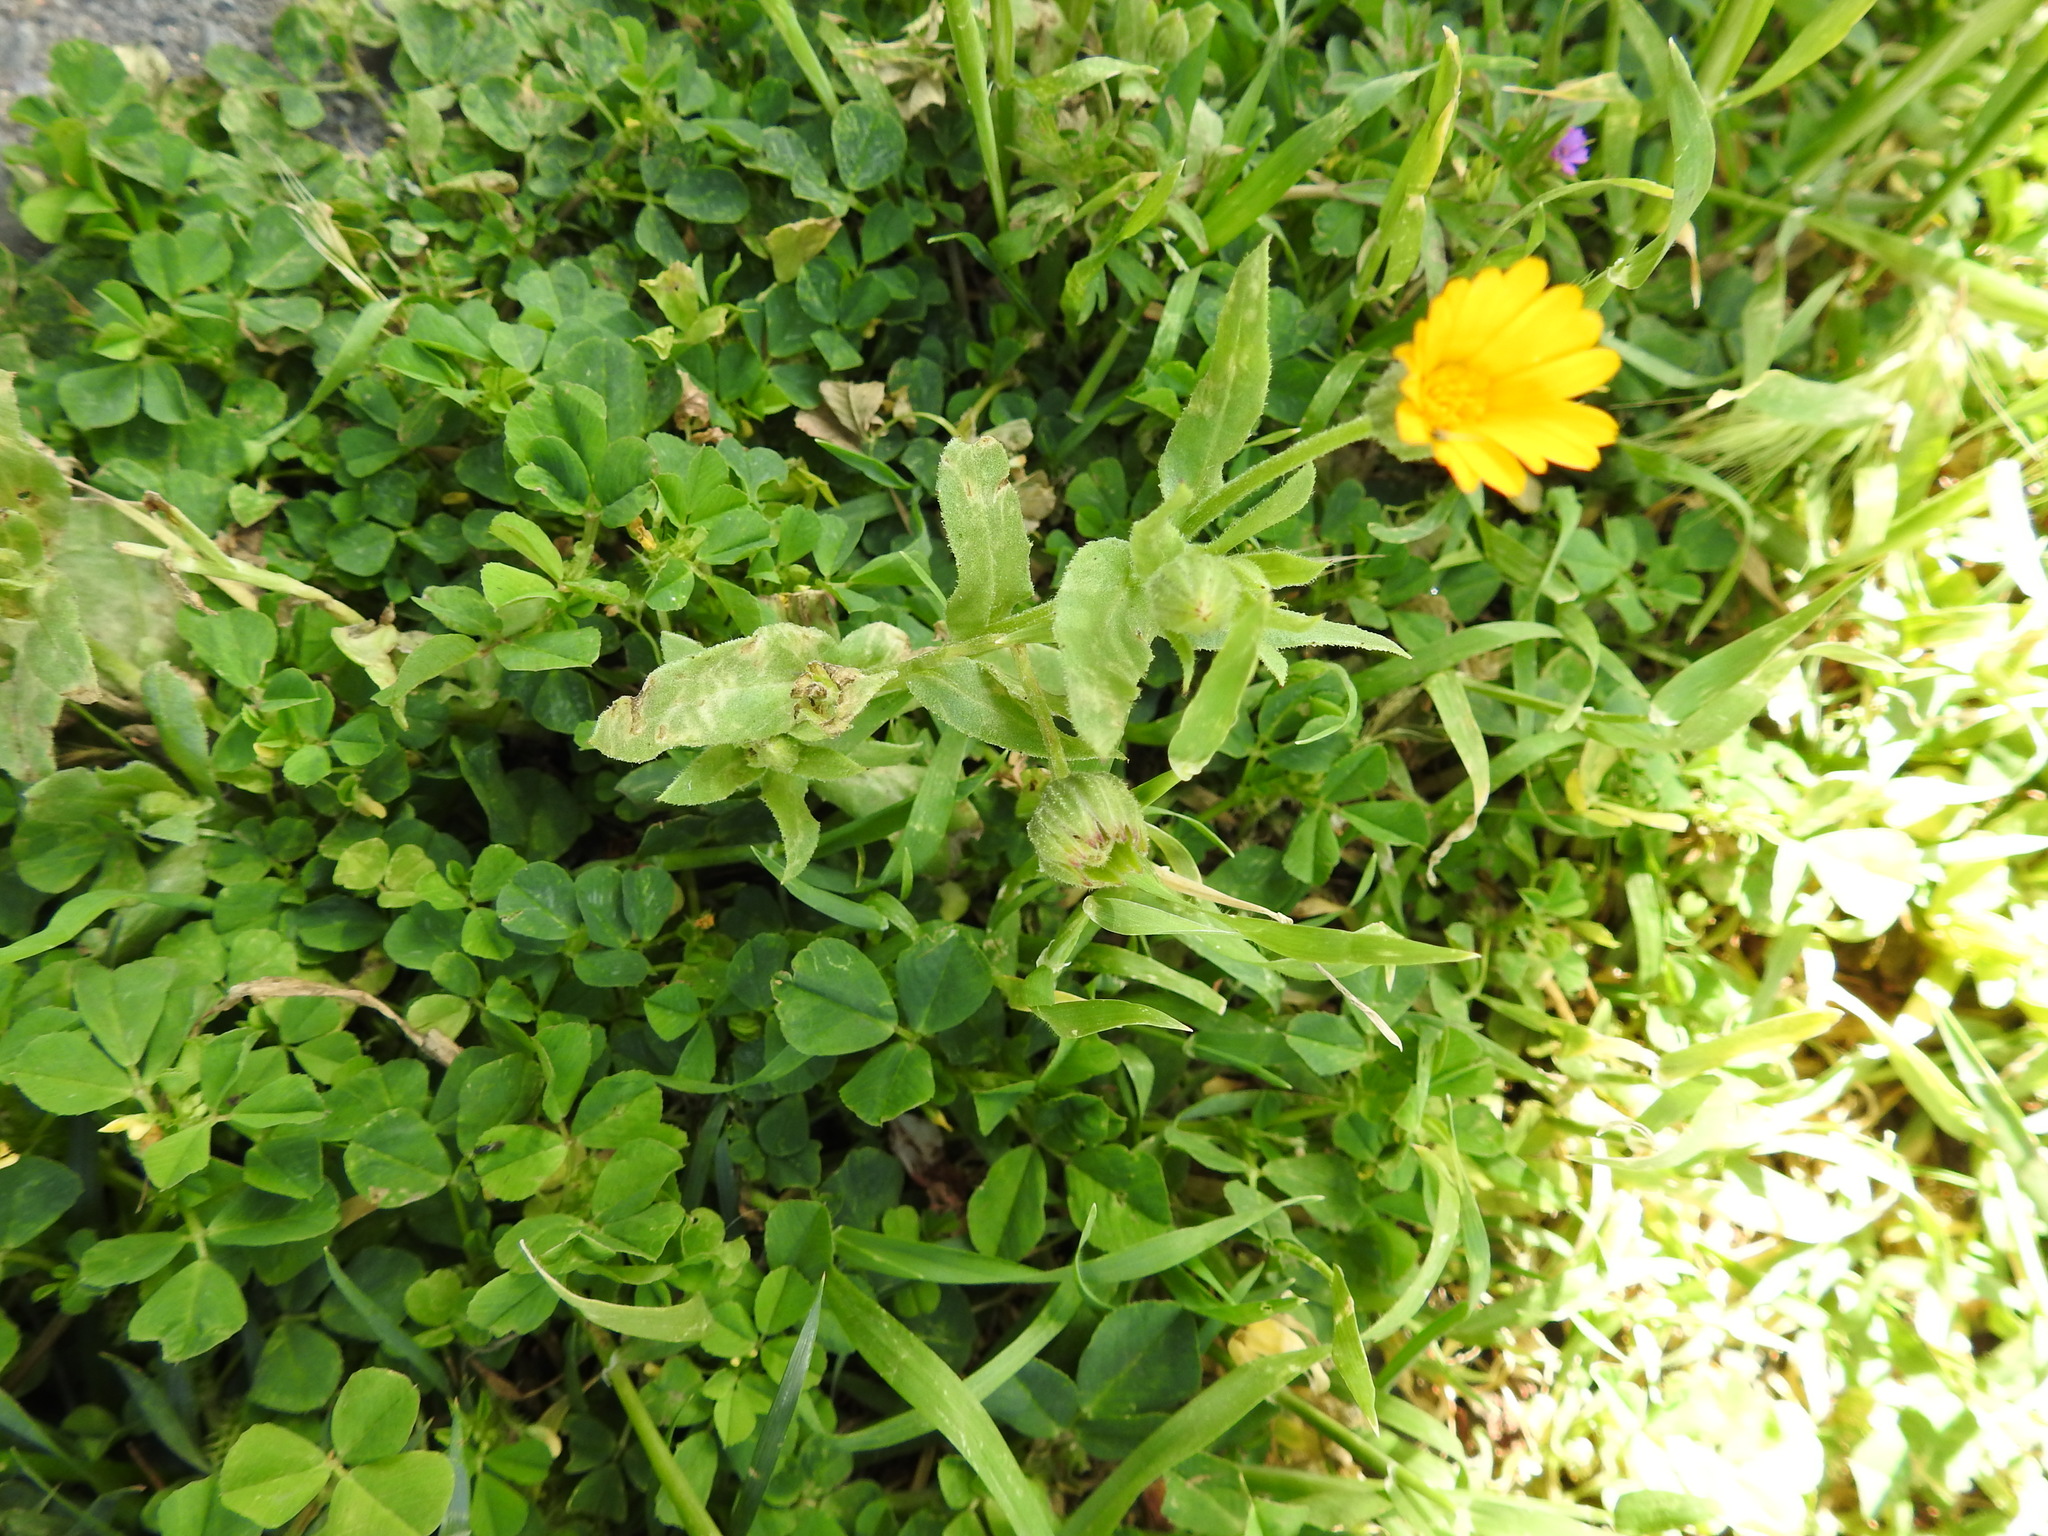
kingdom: Plantae
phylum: Tracheophyta
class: Magnoliopsida
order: Asterales
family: Asteraceae
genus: Calendula
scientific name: Calendula arvensis
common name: Field marigold
